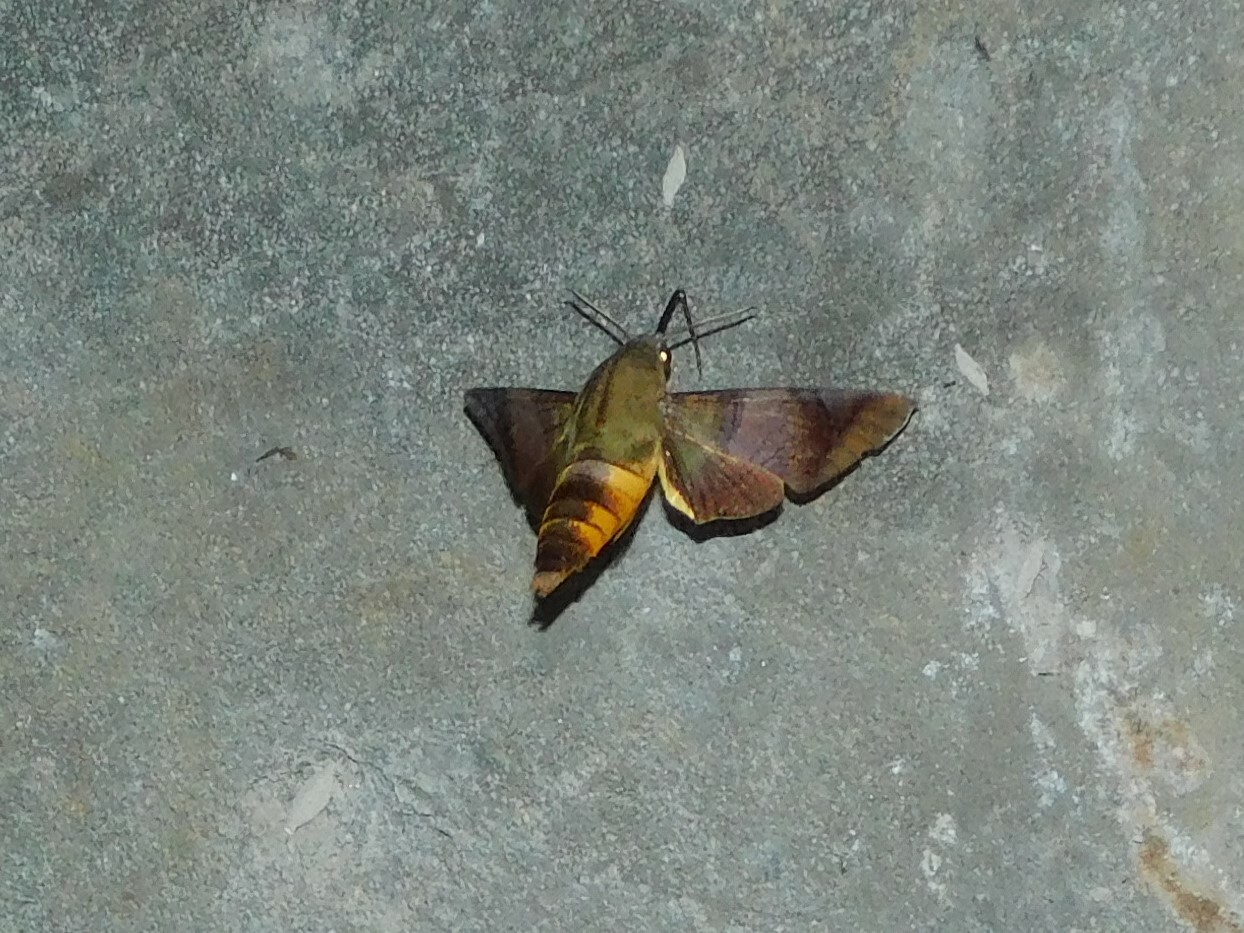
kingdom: Animalia
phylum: Arthropoda
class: Insecta
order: Lepidoptera
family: Sphingidae
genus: Atemnora
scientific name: Atemnora westermanni
